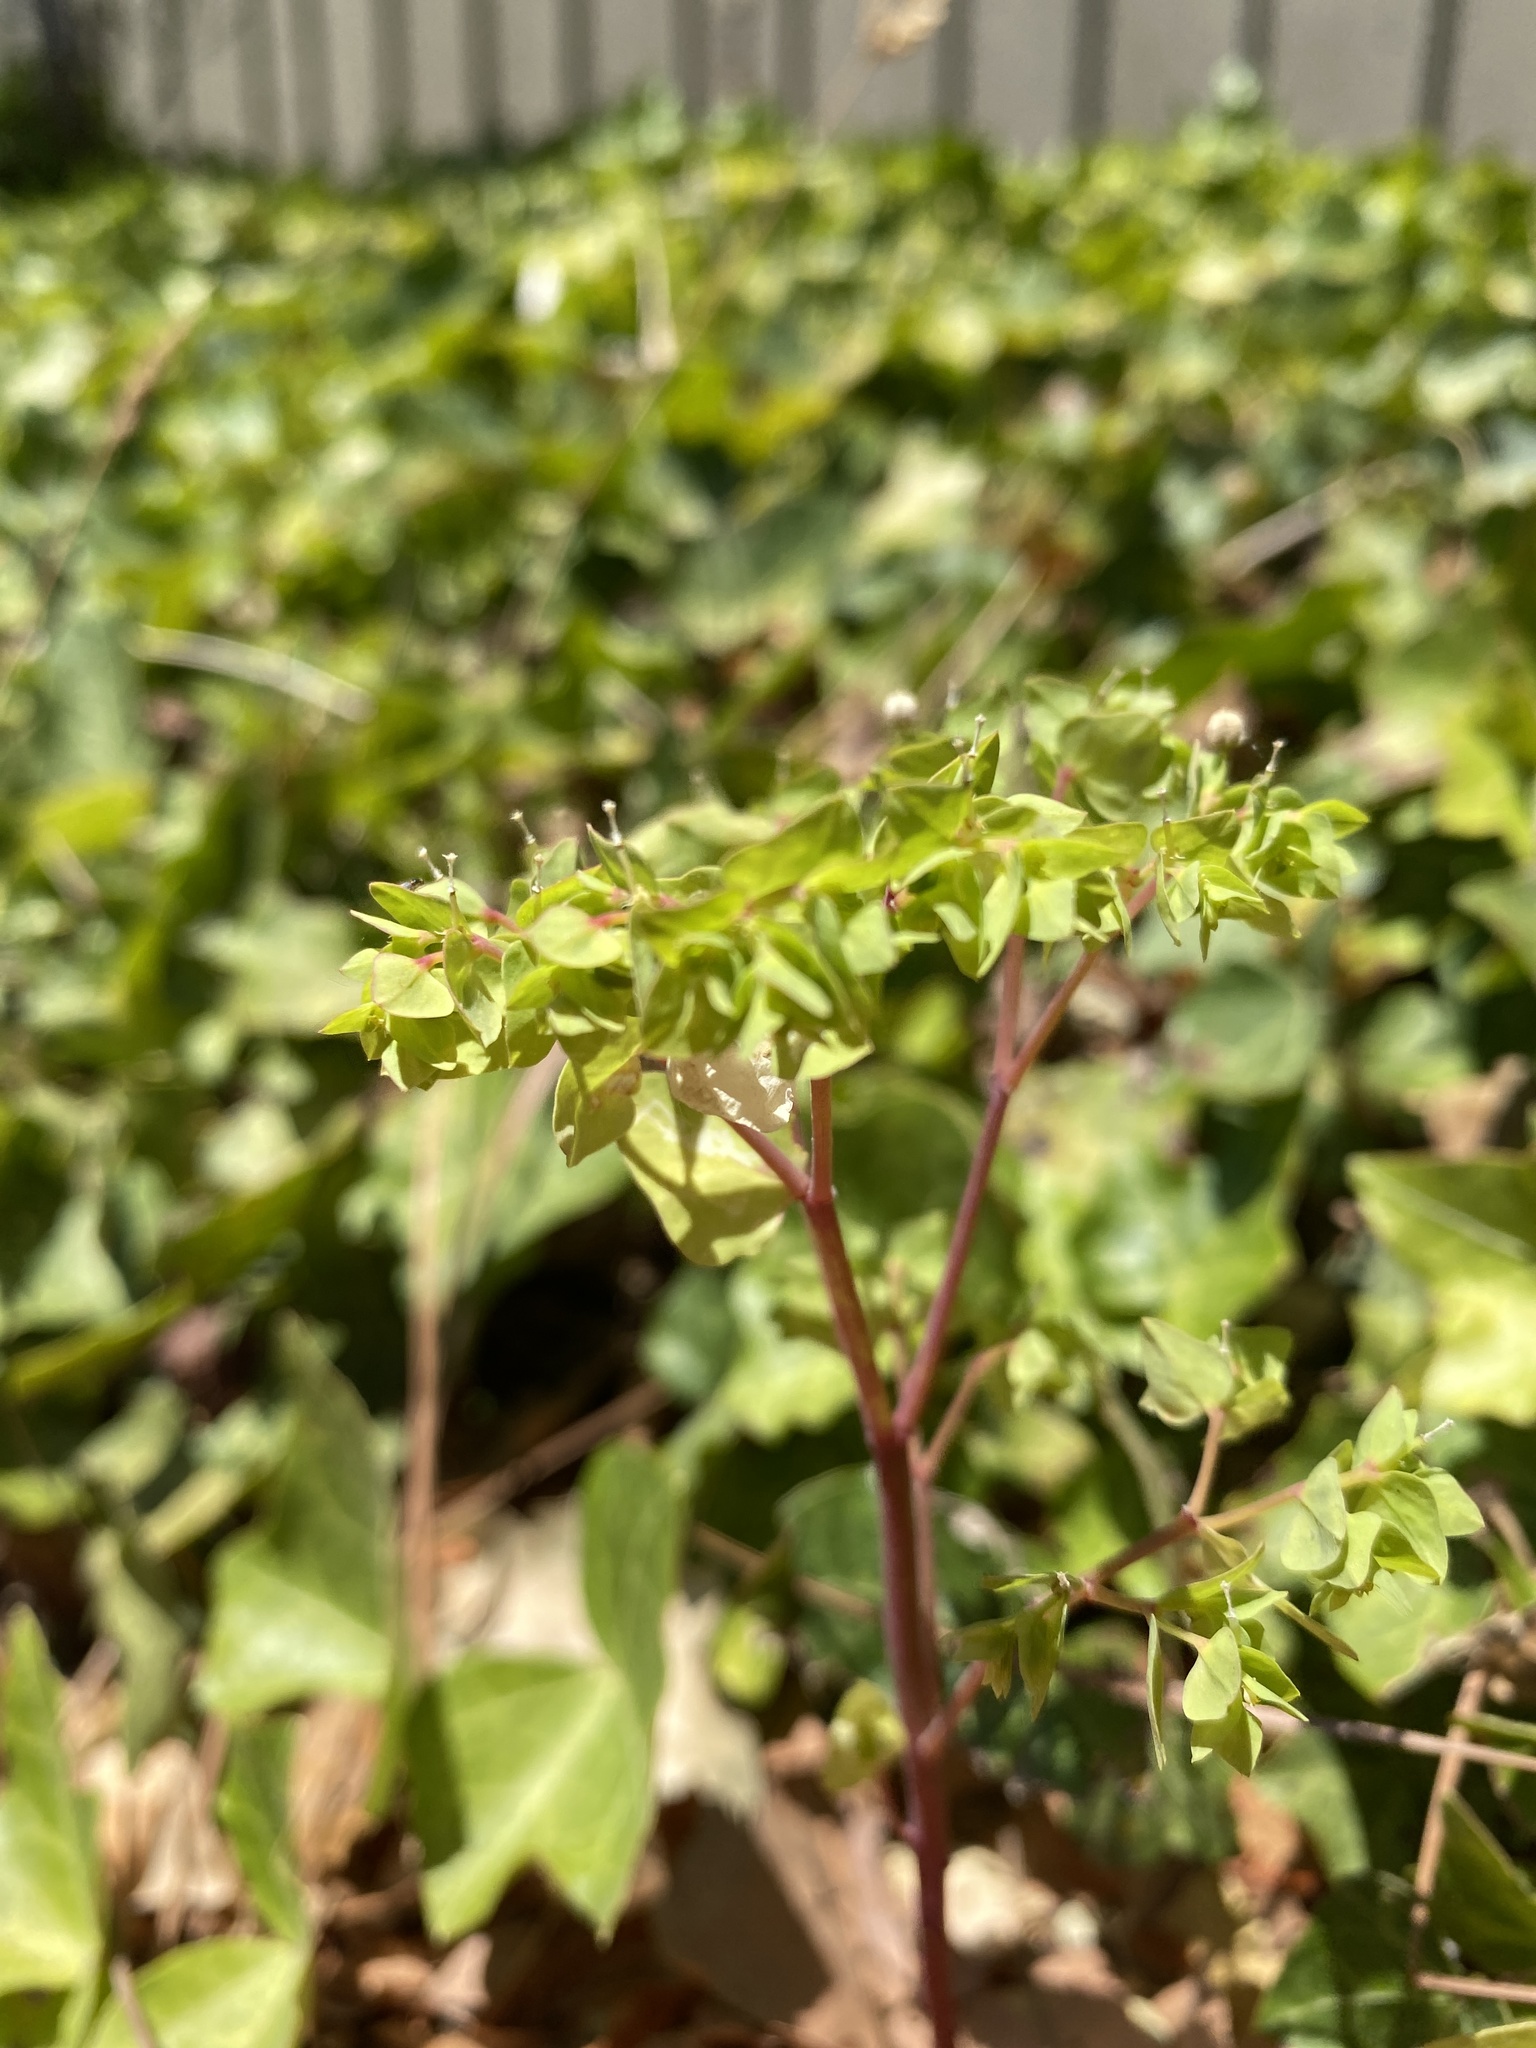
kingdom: Plantae
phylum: Tracheophyta
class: Magnoliopsida
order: Malpighiales
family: Euphorbiaceae
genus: Euphorbia
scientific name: Euphorbia peplus
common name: Petty spurge
